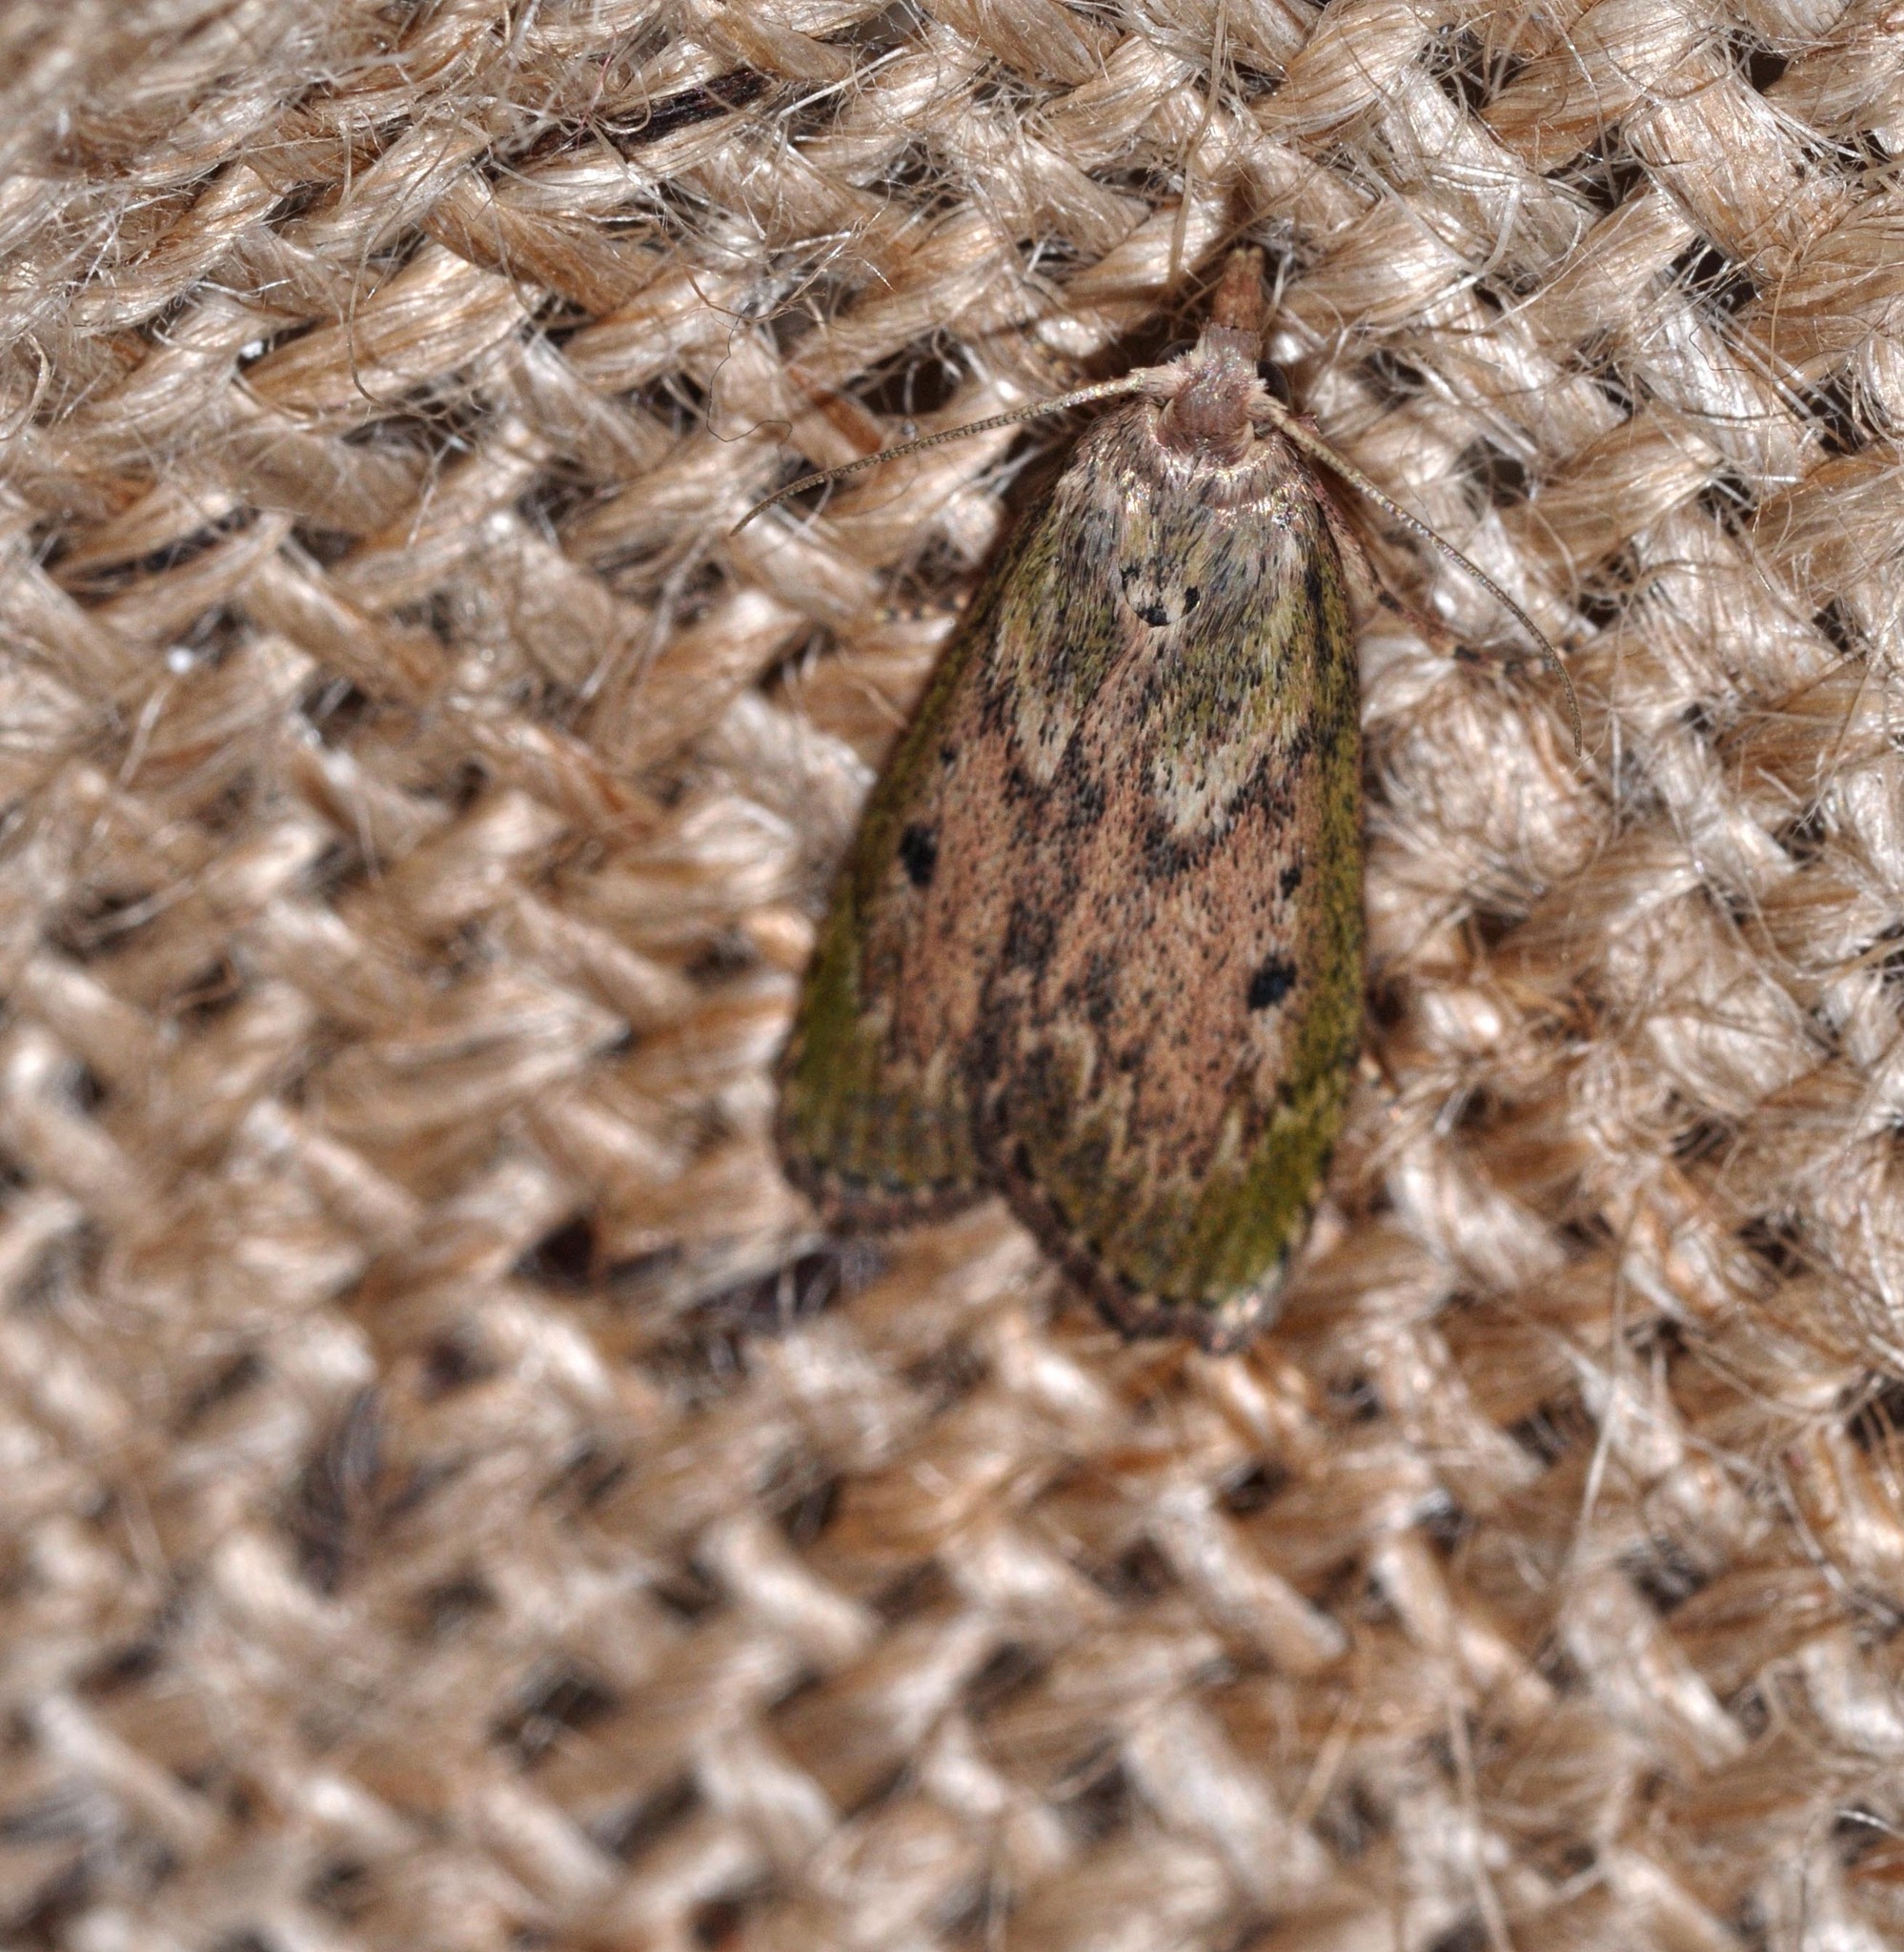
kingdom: Animalia
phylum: Arthropoda
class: Insecta
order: Lepidoptera
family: Pyralidae
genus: Aphomia
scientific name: Aphomia sociella
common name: Bee moth
